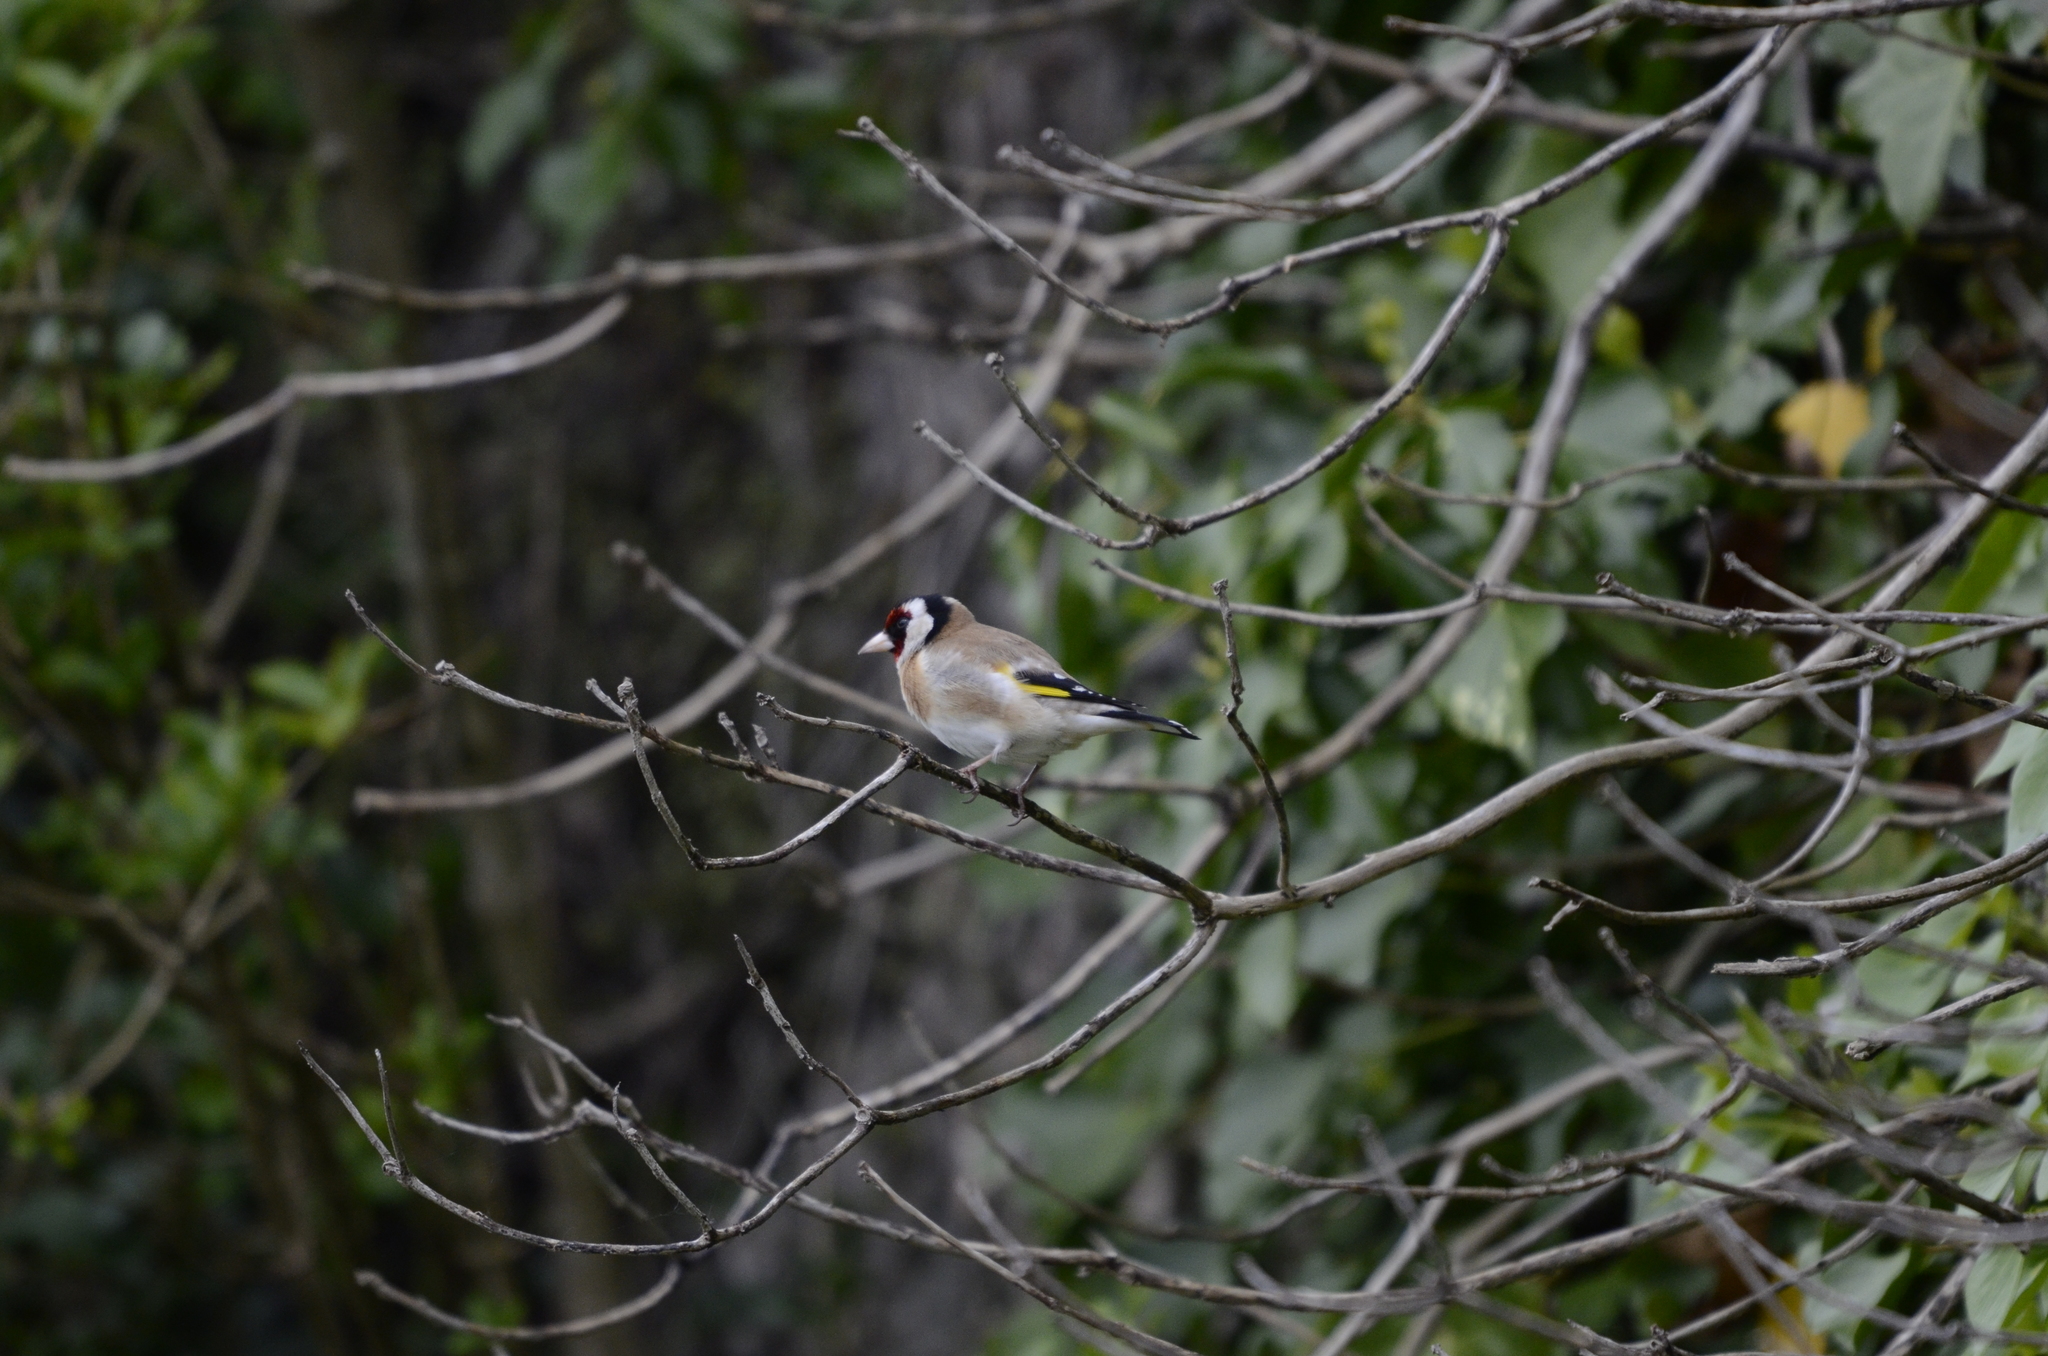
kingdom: Animalia
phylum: Chordata
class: Aves
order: Passeriformes
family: Fringillidae
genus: Carduelis
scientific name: Carduelis carduelis
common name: European goldfinch
